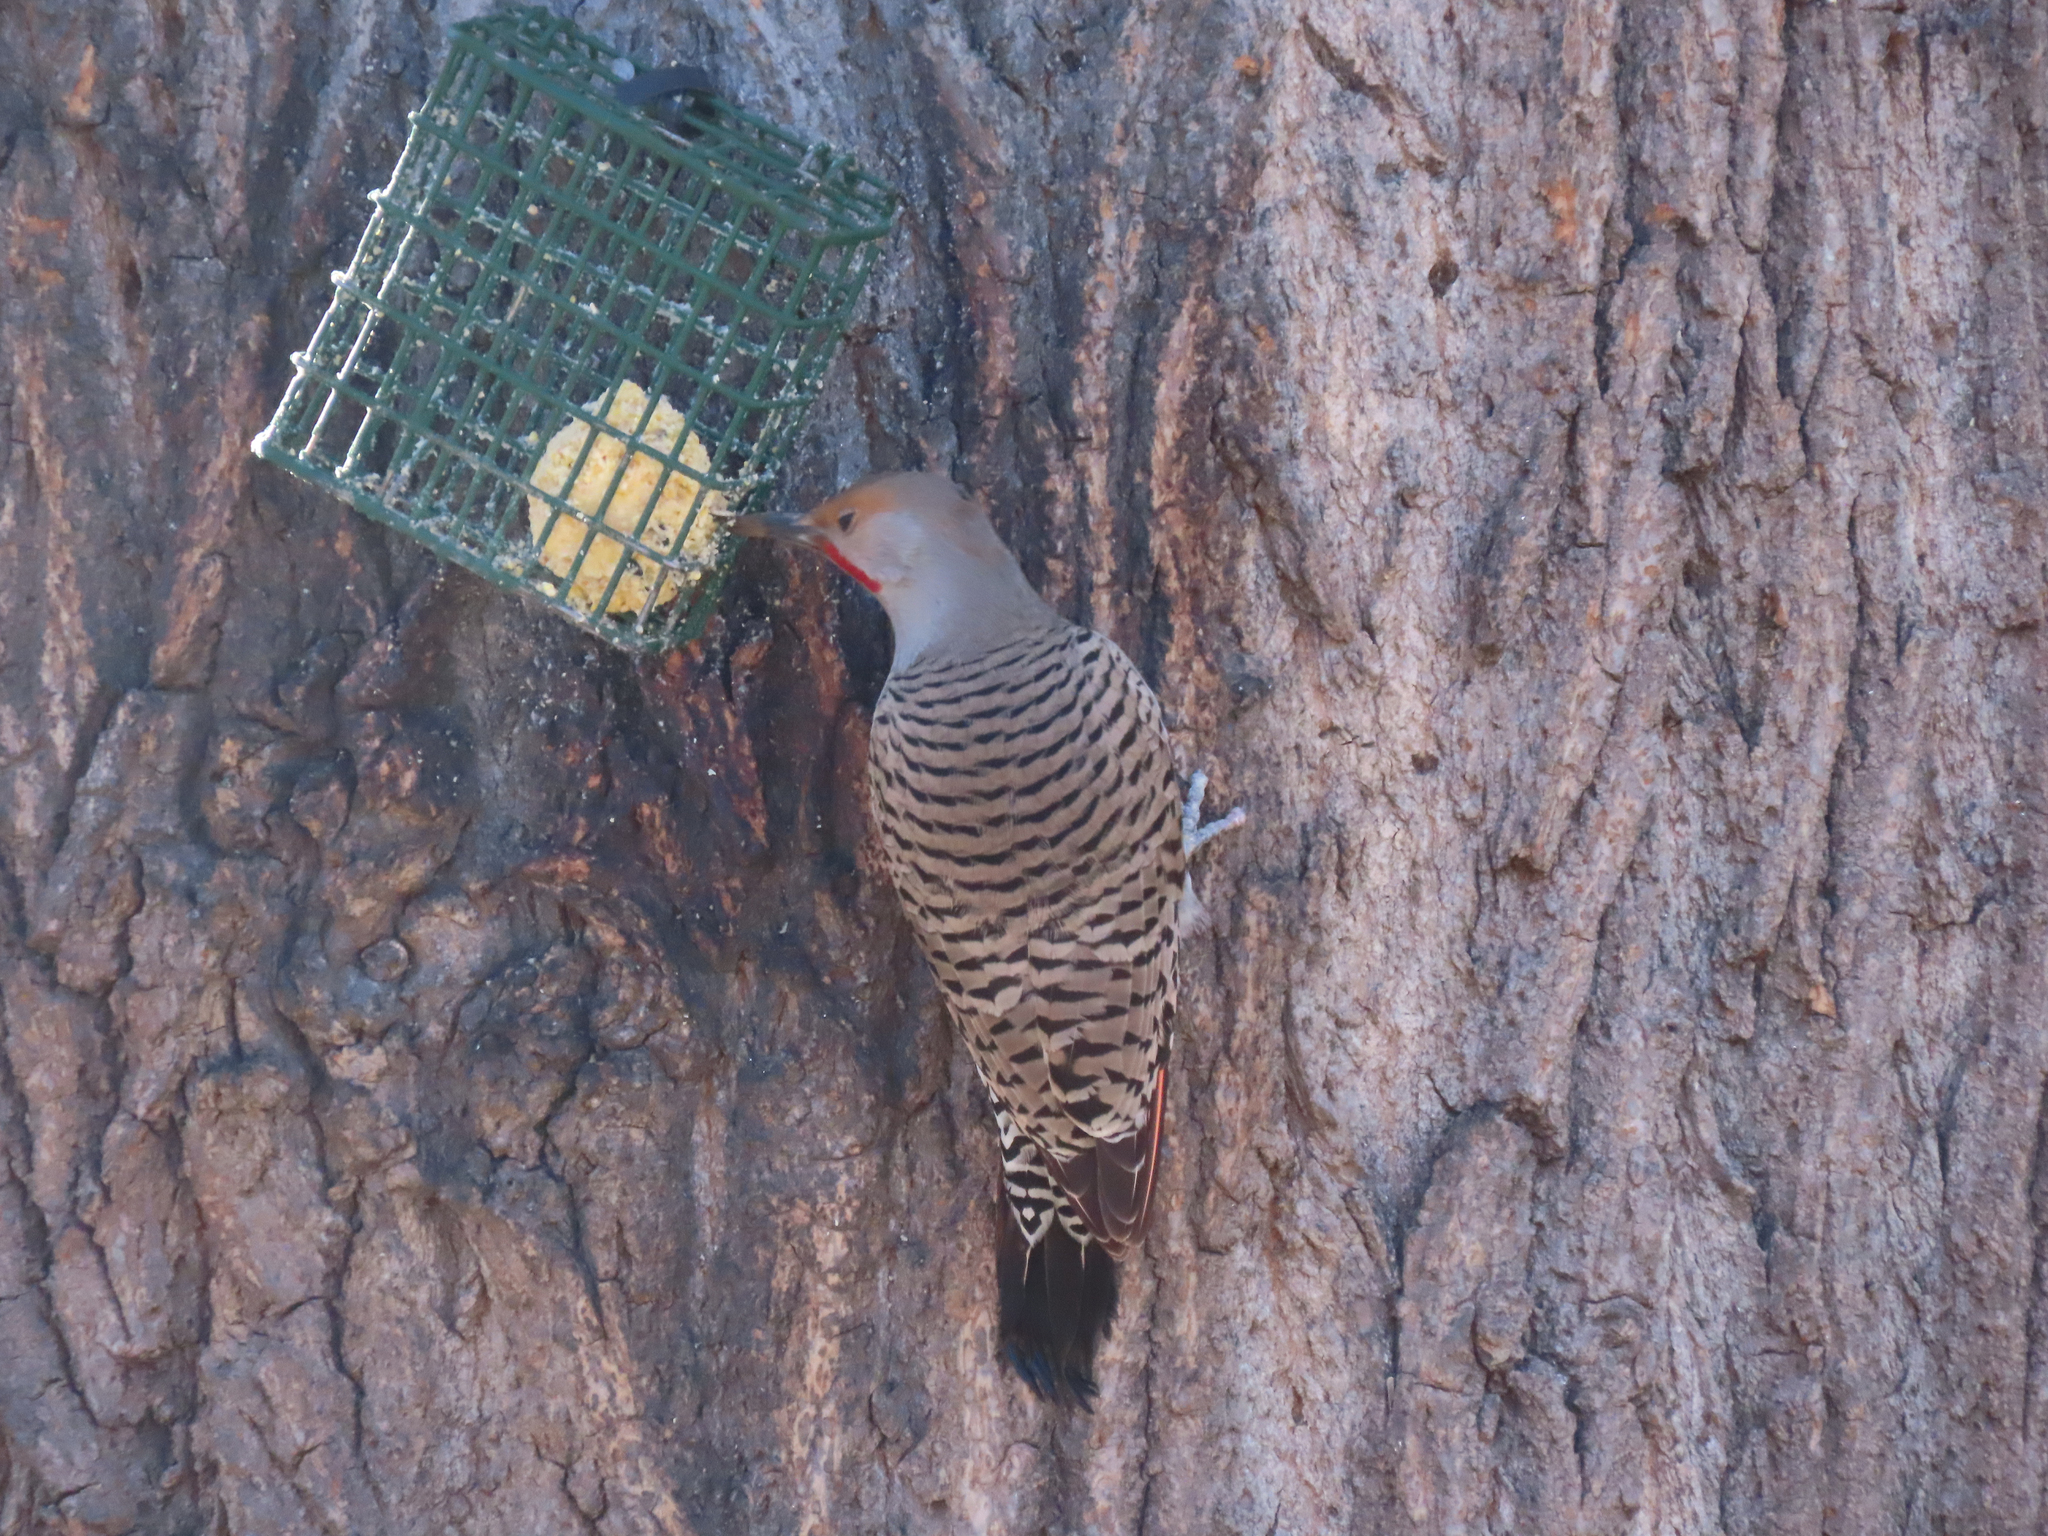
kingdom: Animalia
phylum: Chordata
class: Aves
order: Piciformes
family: Picidae
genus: Colaptes
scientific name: Colaptes auratus
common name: Northern flicker
